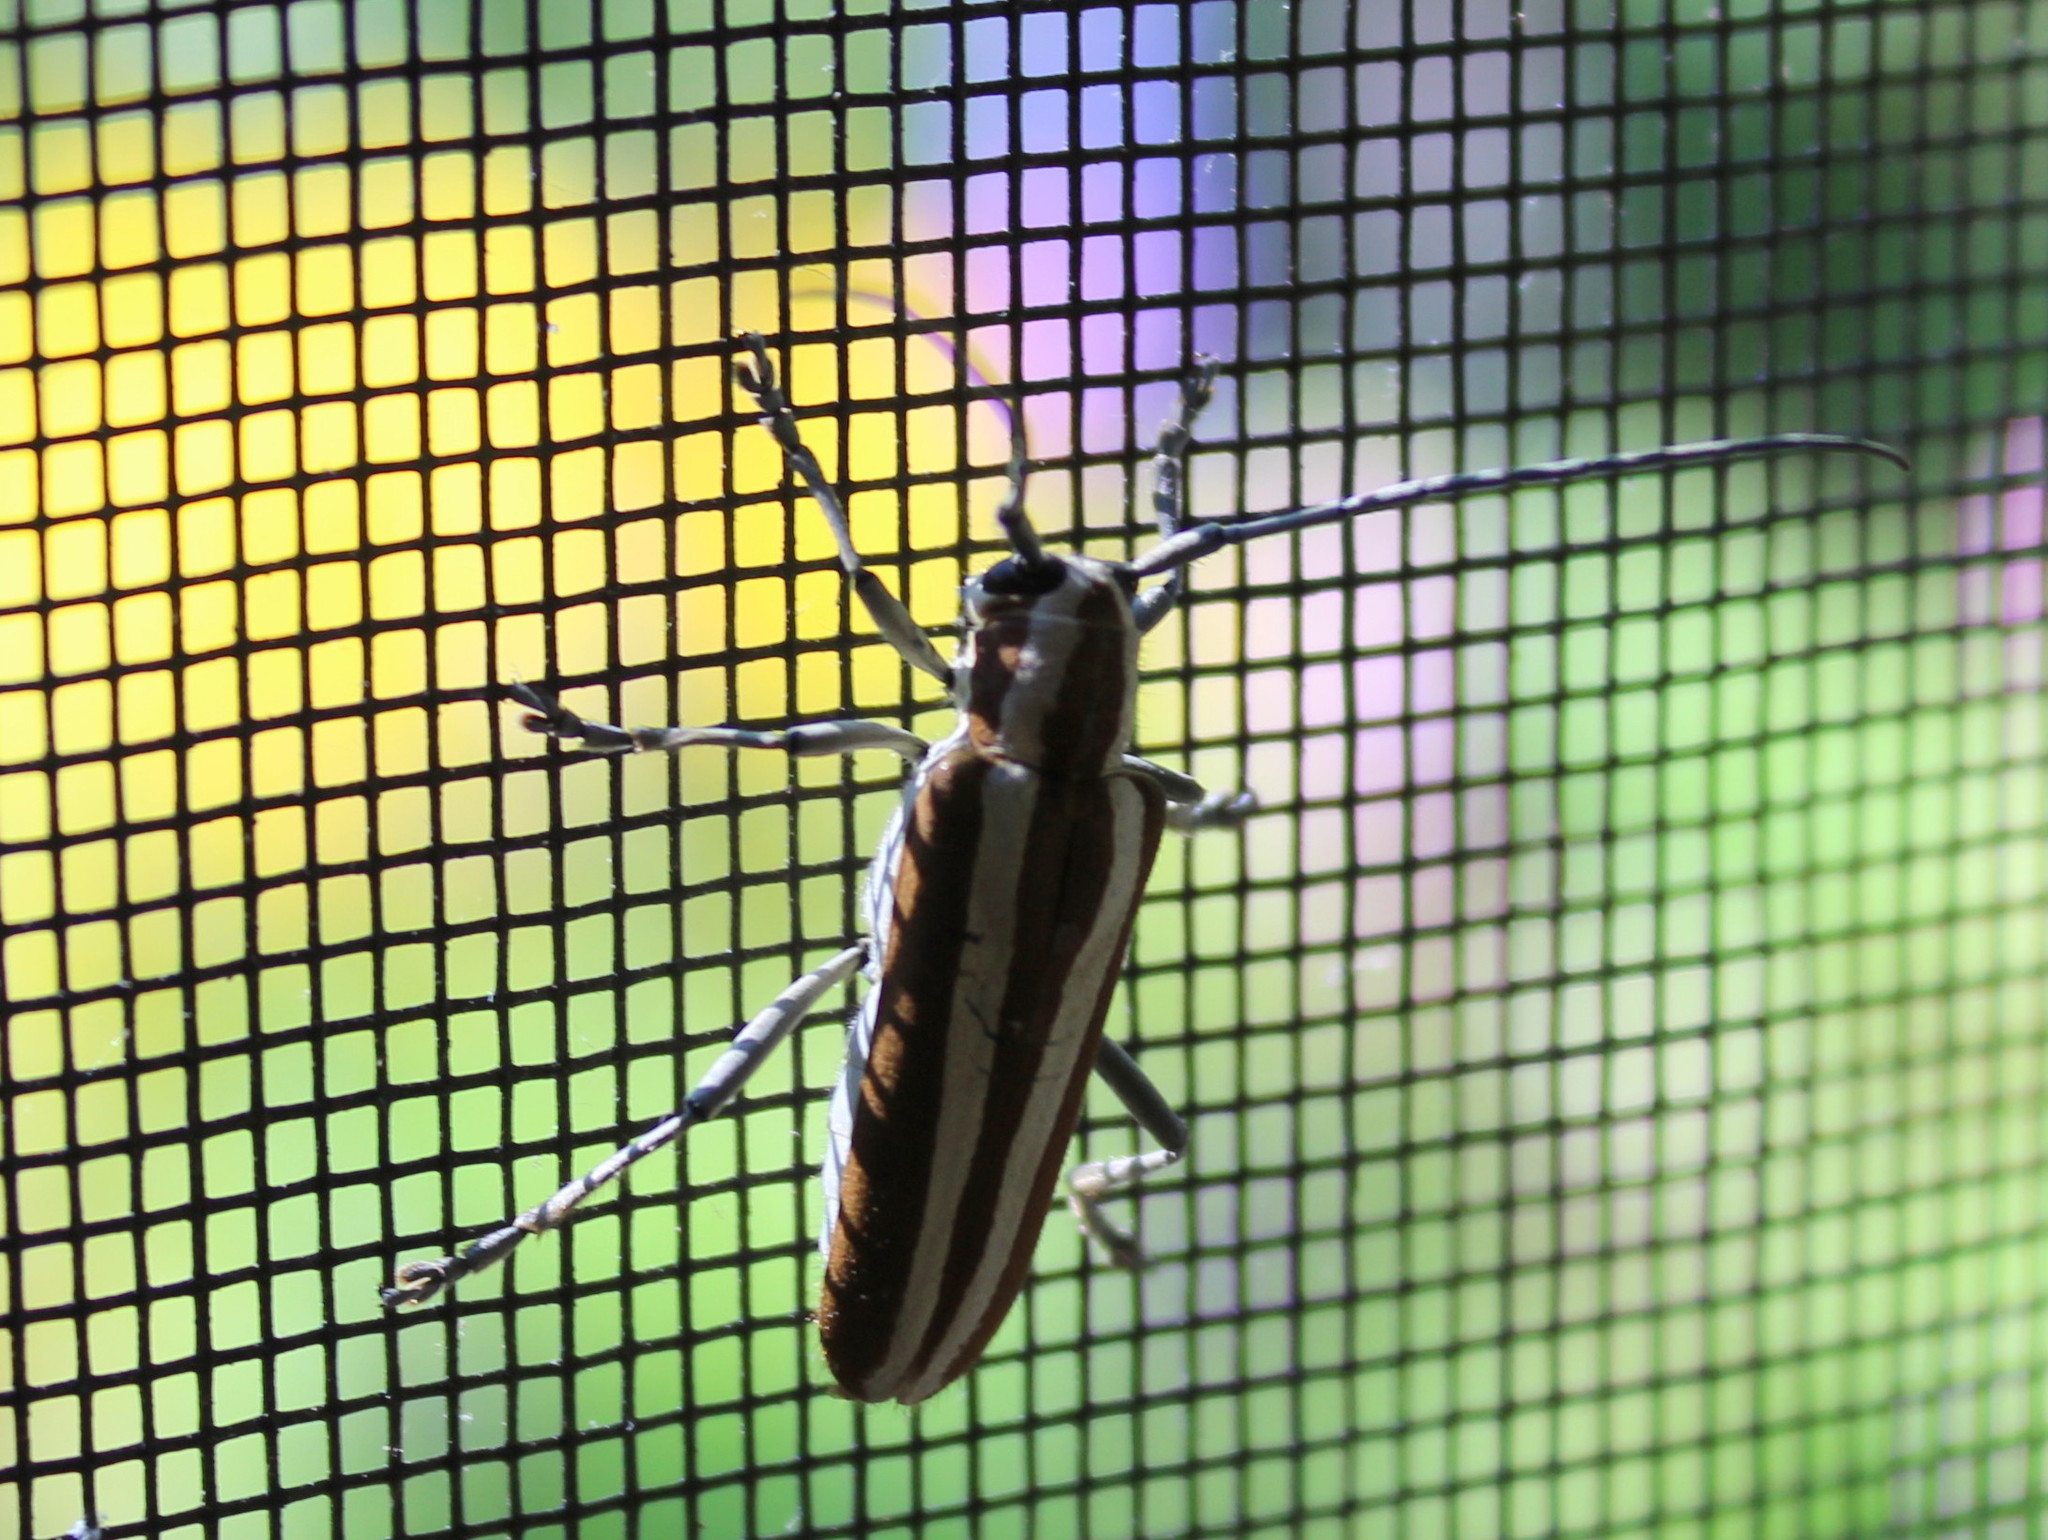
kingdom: Animalia
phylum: Arthropoda
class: Insecta
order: Coleoptera
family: Cerambycidae
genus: Saperda
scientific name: Saperda candida
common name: Round-headed borer
